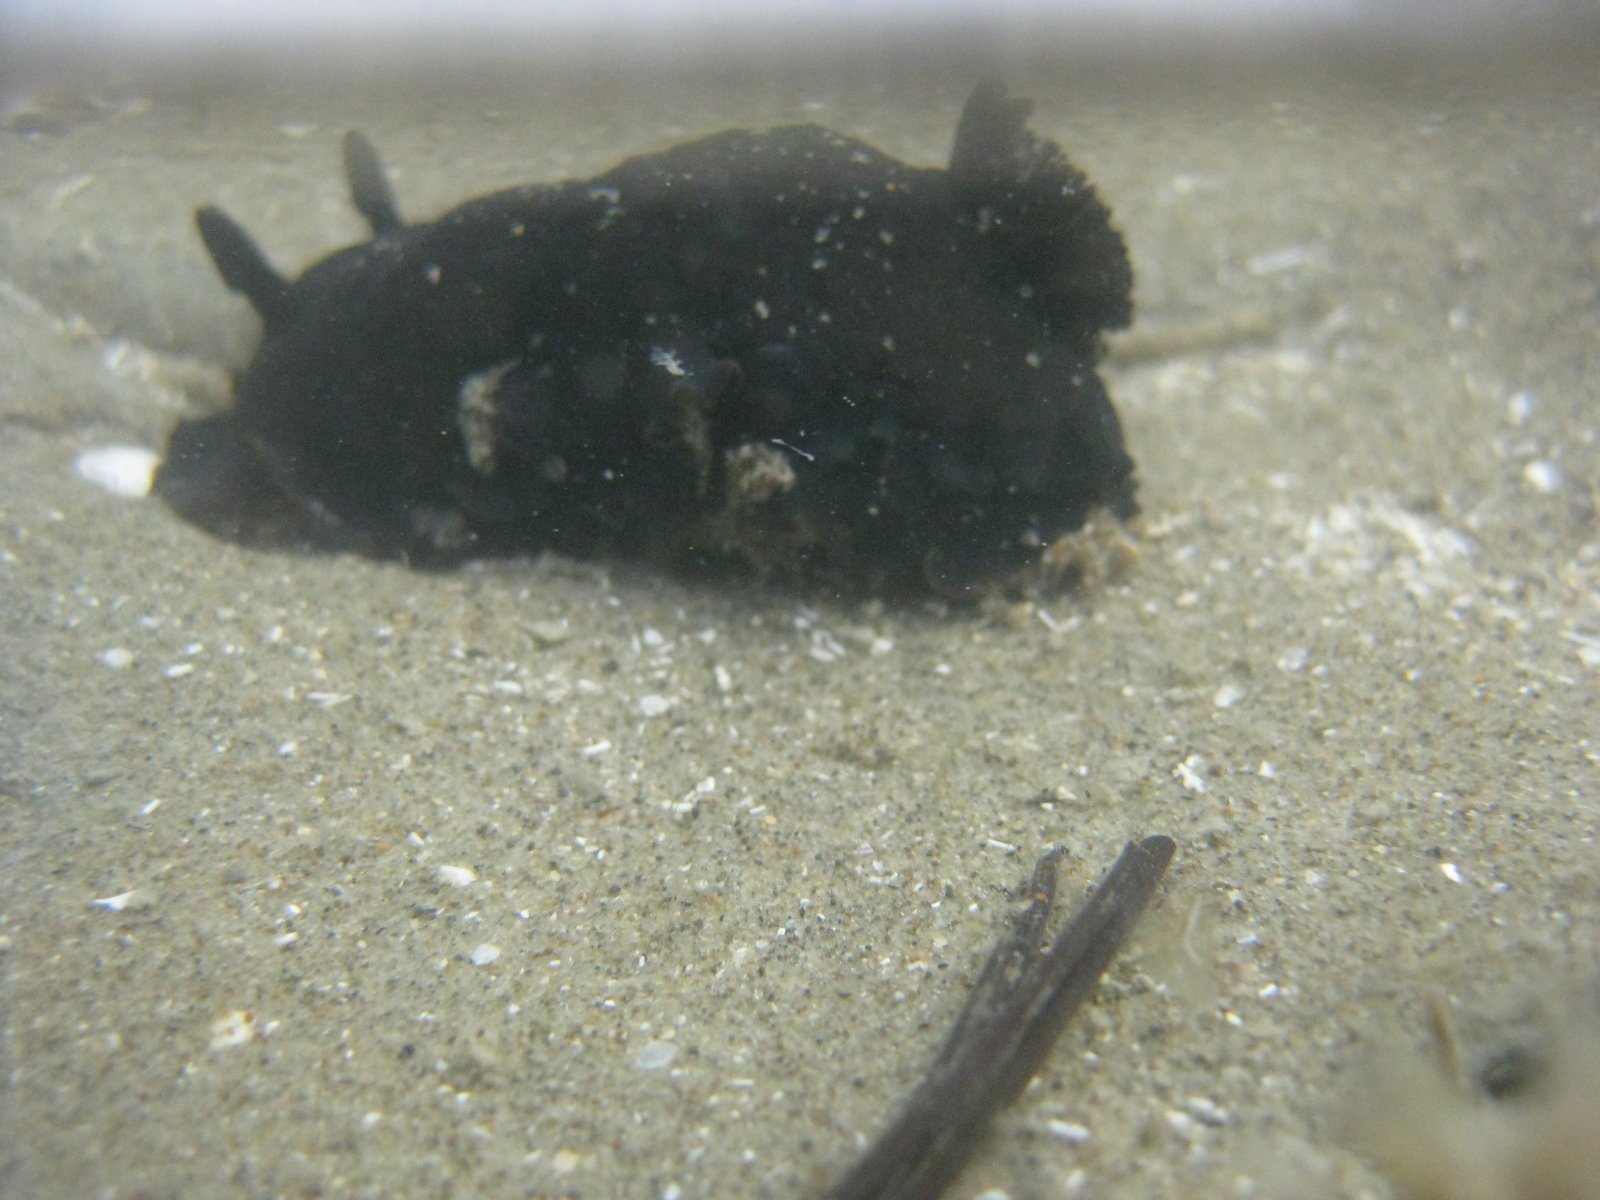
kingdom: Animalia
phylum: Mollusca
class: Gastropoda
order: Nudibranchia
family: Dendrodorididae
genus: Dendrodoris
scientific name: Dendrodoris arborescens
